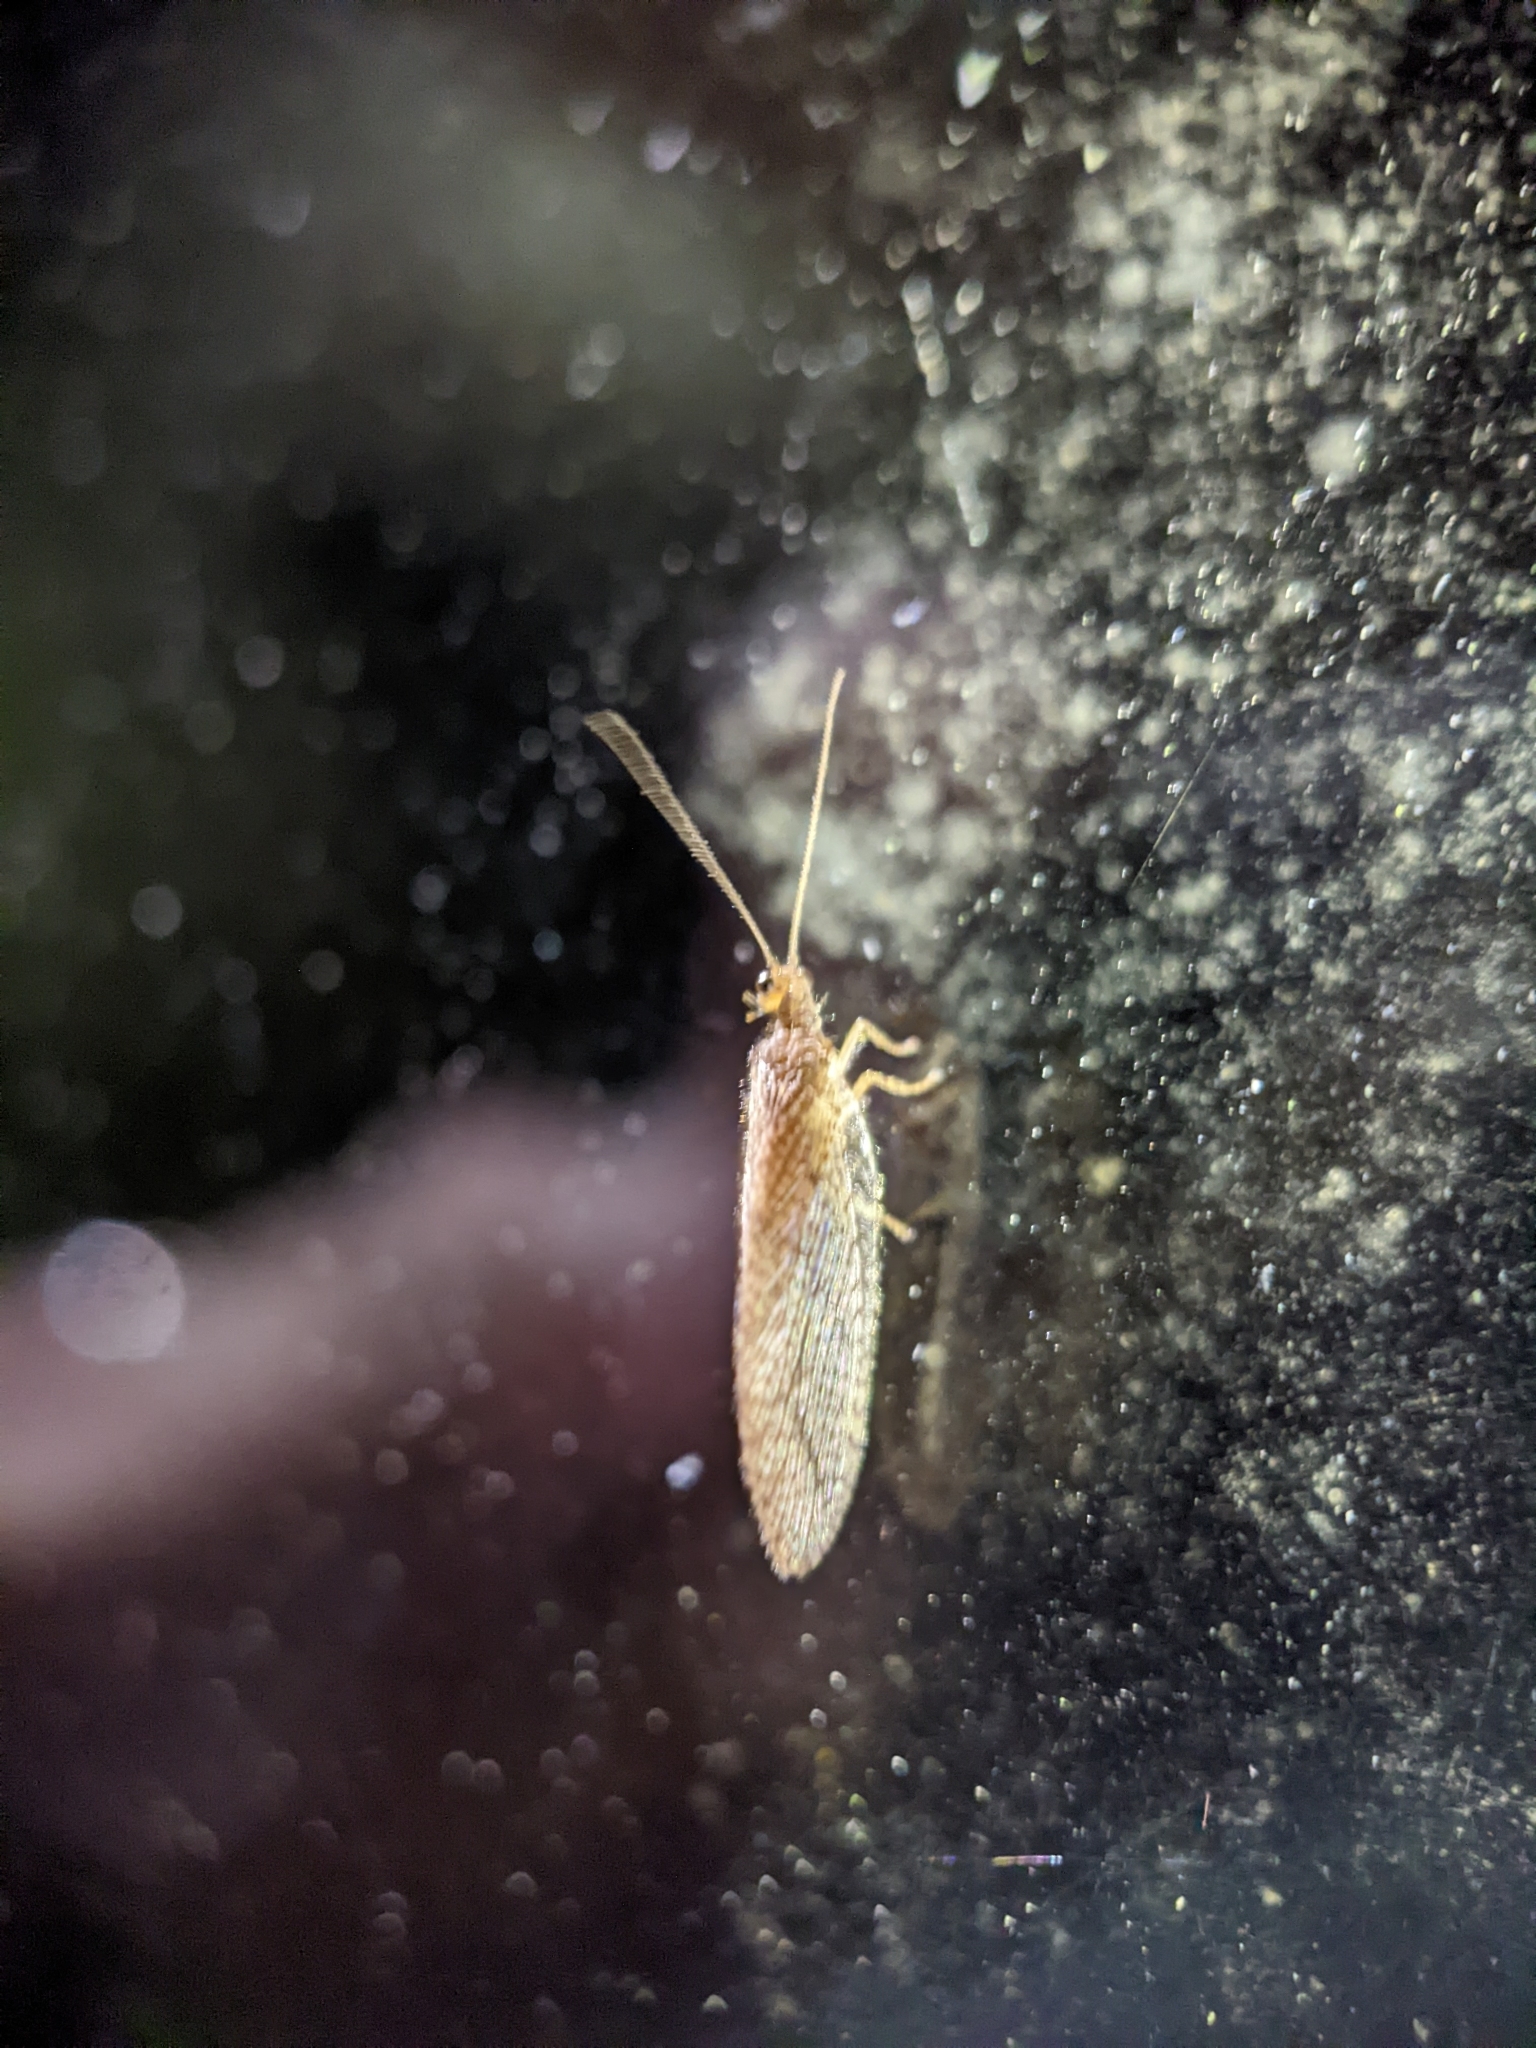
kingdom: Animalia
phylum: Arthropoda
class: Insecta
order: Neuroptera
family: Hemerobiidae
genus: Micromus
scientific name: Micromus posticus
